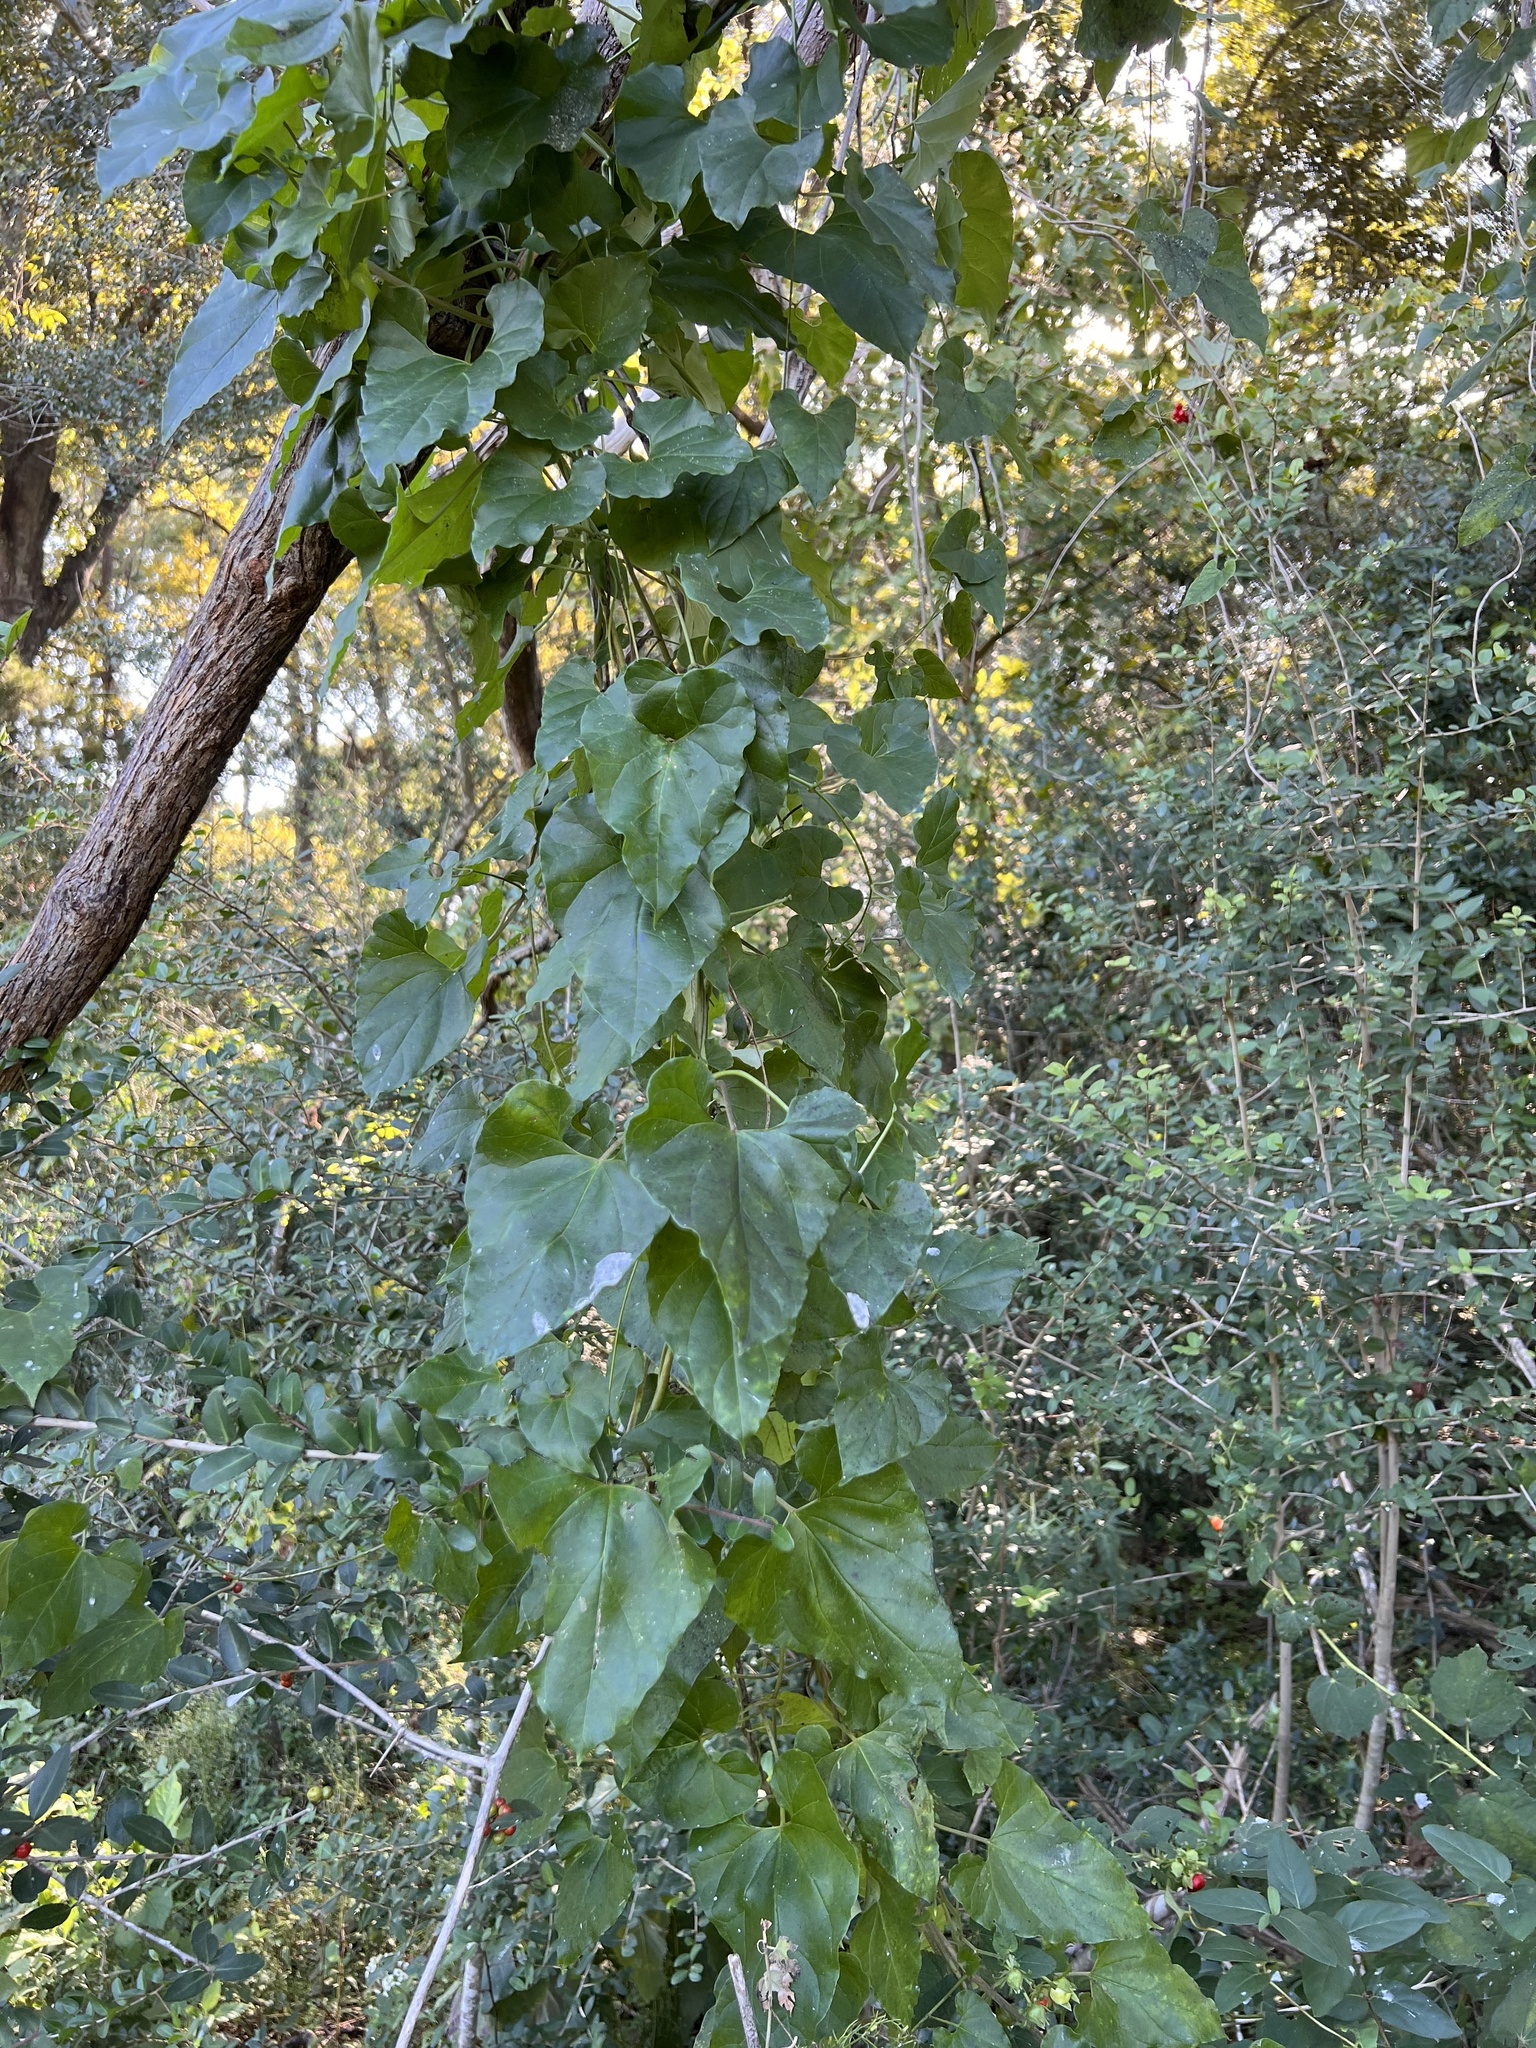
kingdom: Plantae
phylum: Tracheophyta
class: Magnoliopsida
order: Gentianales
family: Apocynaceae
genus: Cynanchum
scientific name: Cynanchum racemosum
